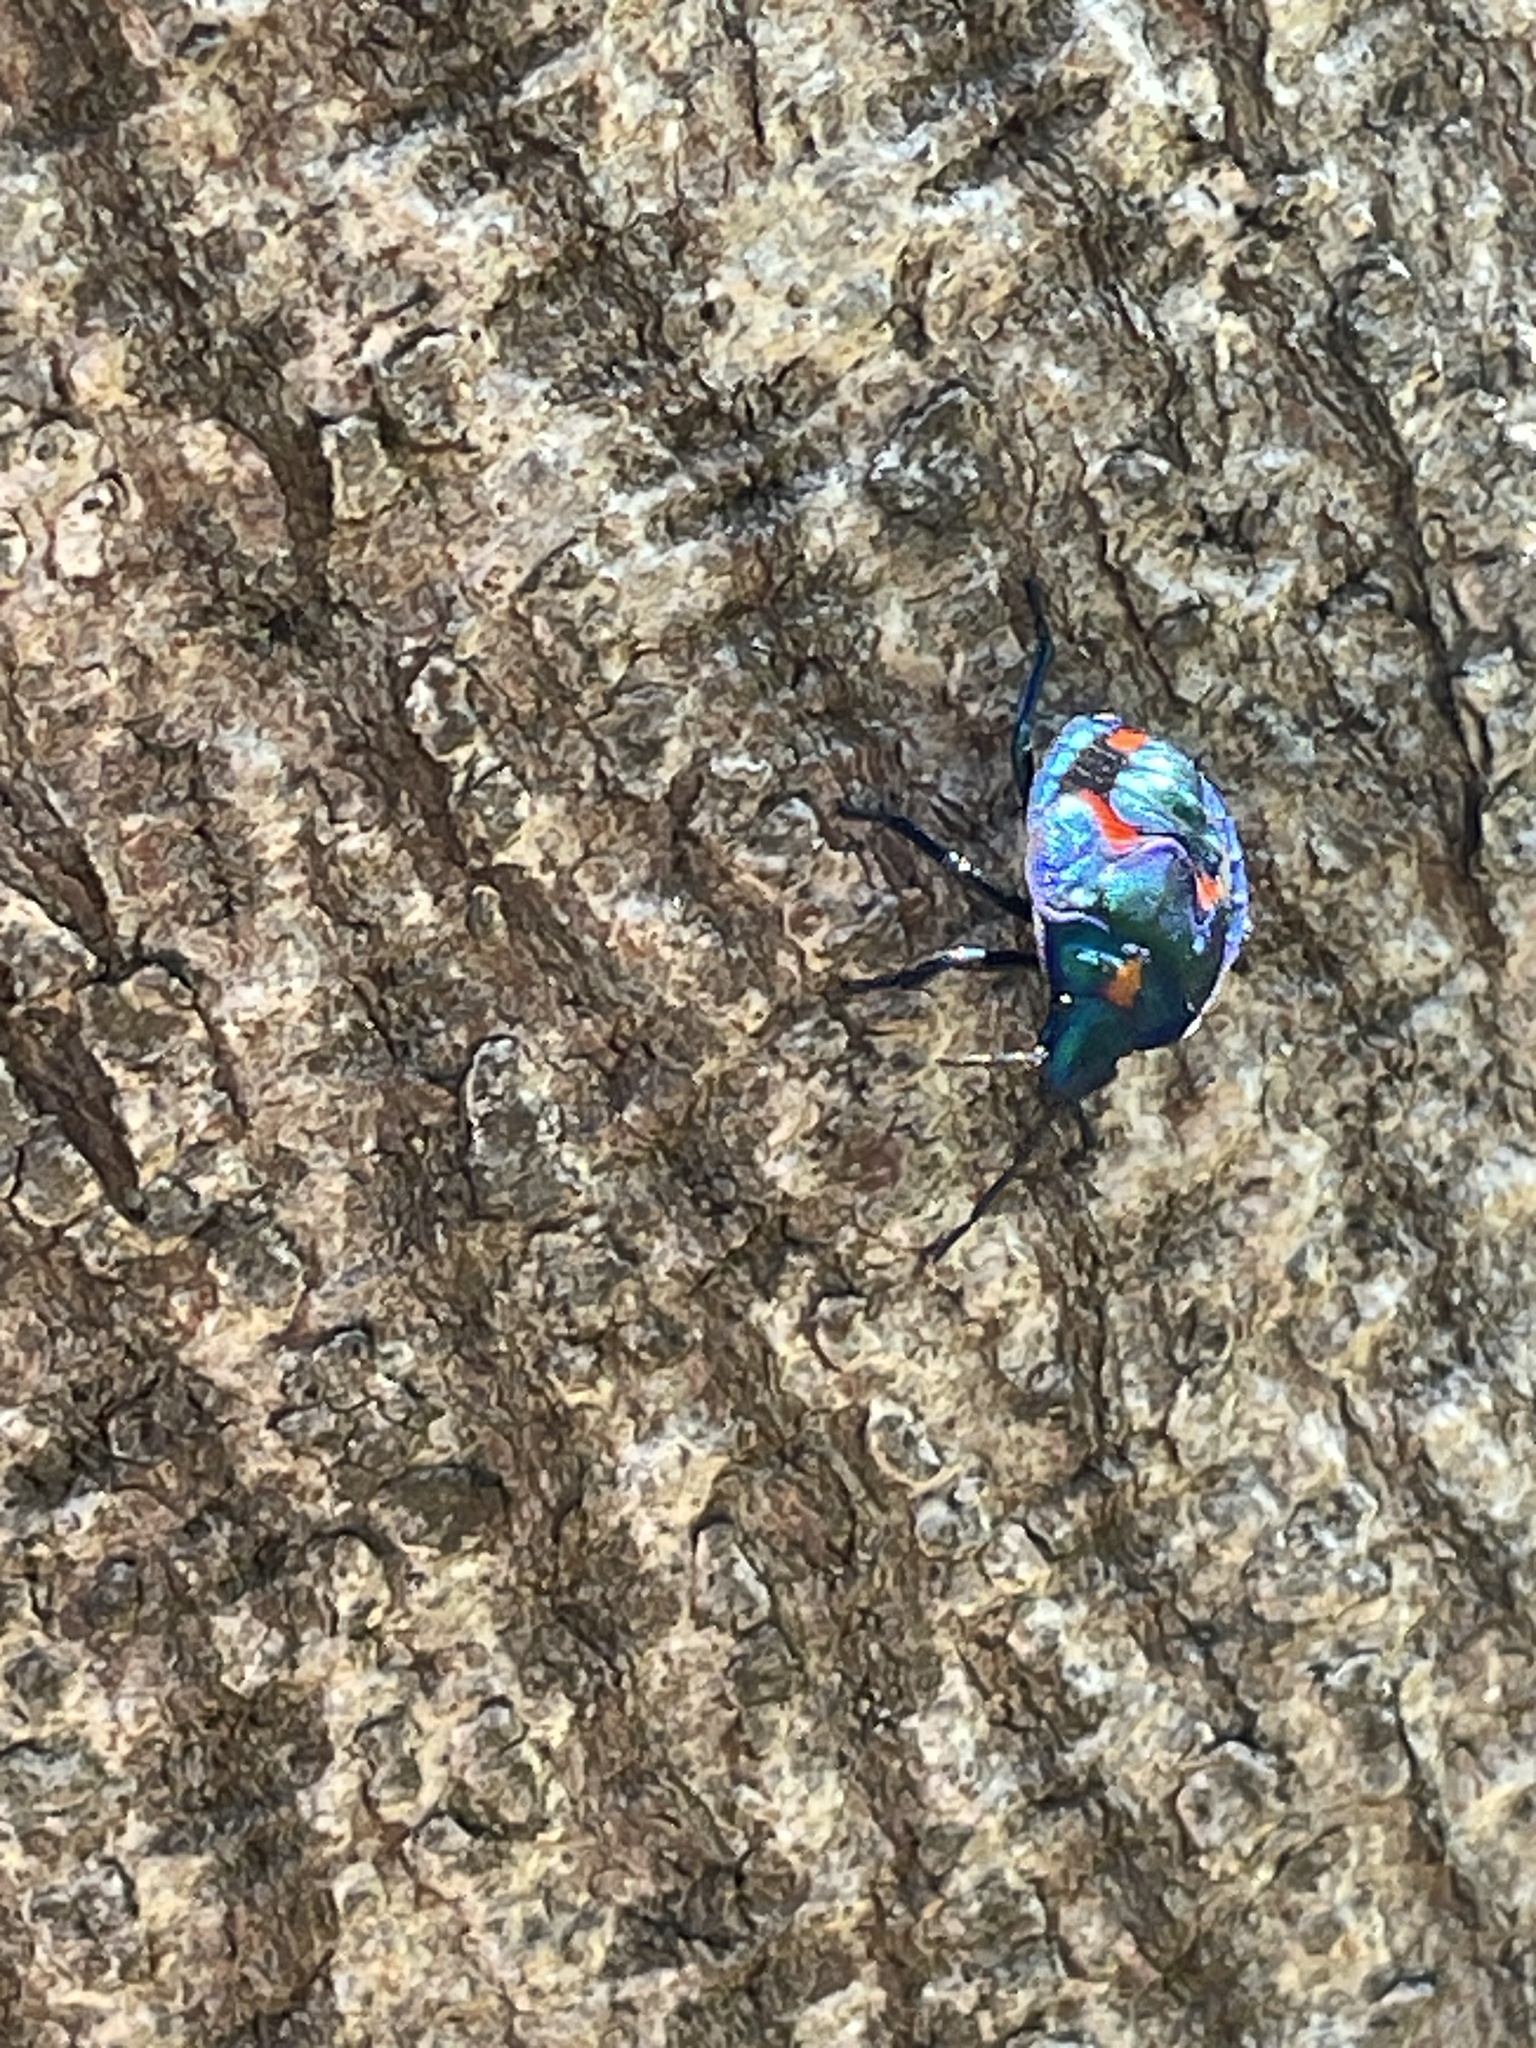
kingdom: Animalia
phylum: Arthropoda
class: Insecta
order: Hemiptera
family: Scutelleridae
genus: Tectocoris
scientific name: Tectocoris diophthalmus
